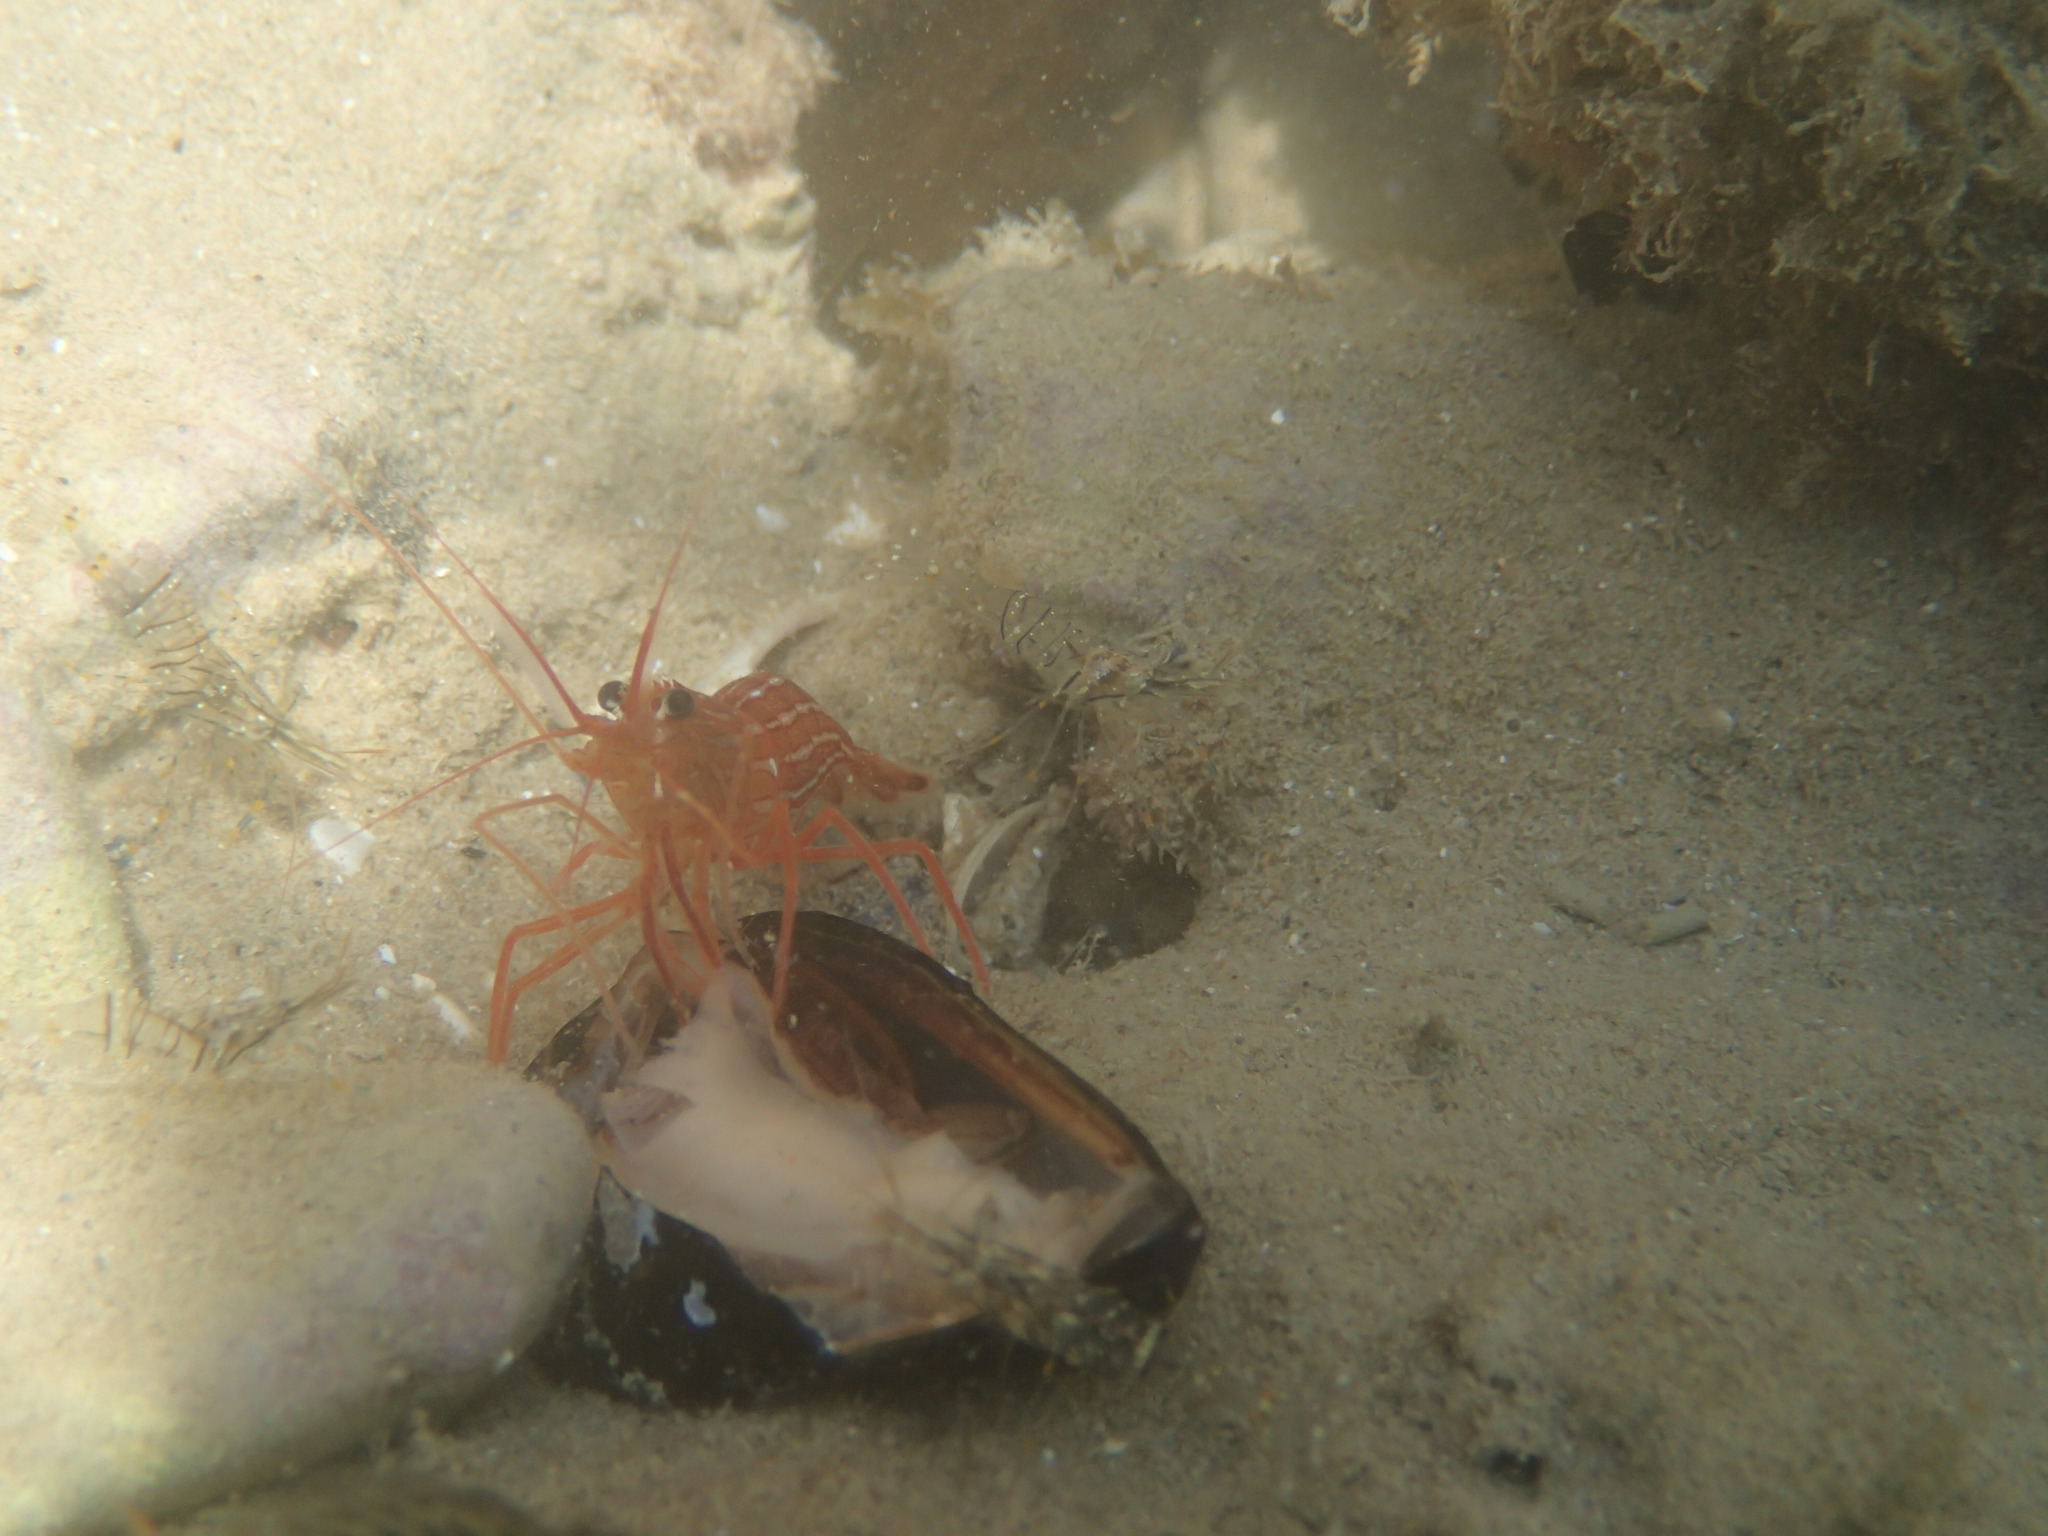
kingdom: Animalia
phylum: Arthropoda
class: Malacostraca
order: Decapoda
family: Lysmatidae
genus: Lysmata
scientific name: Lysmata seticaudata
